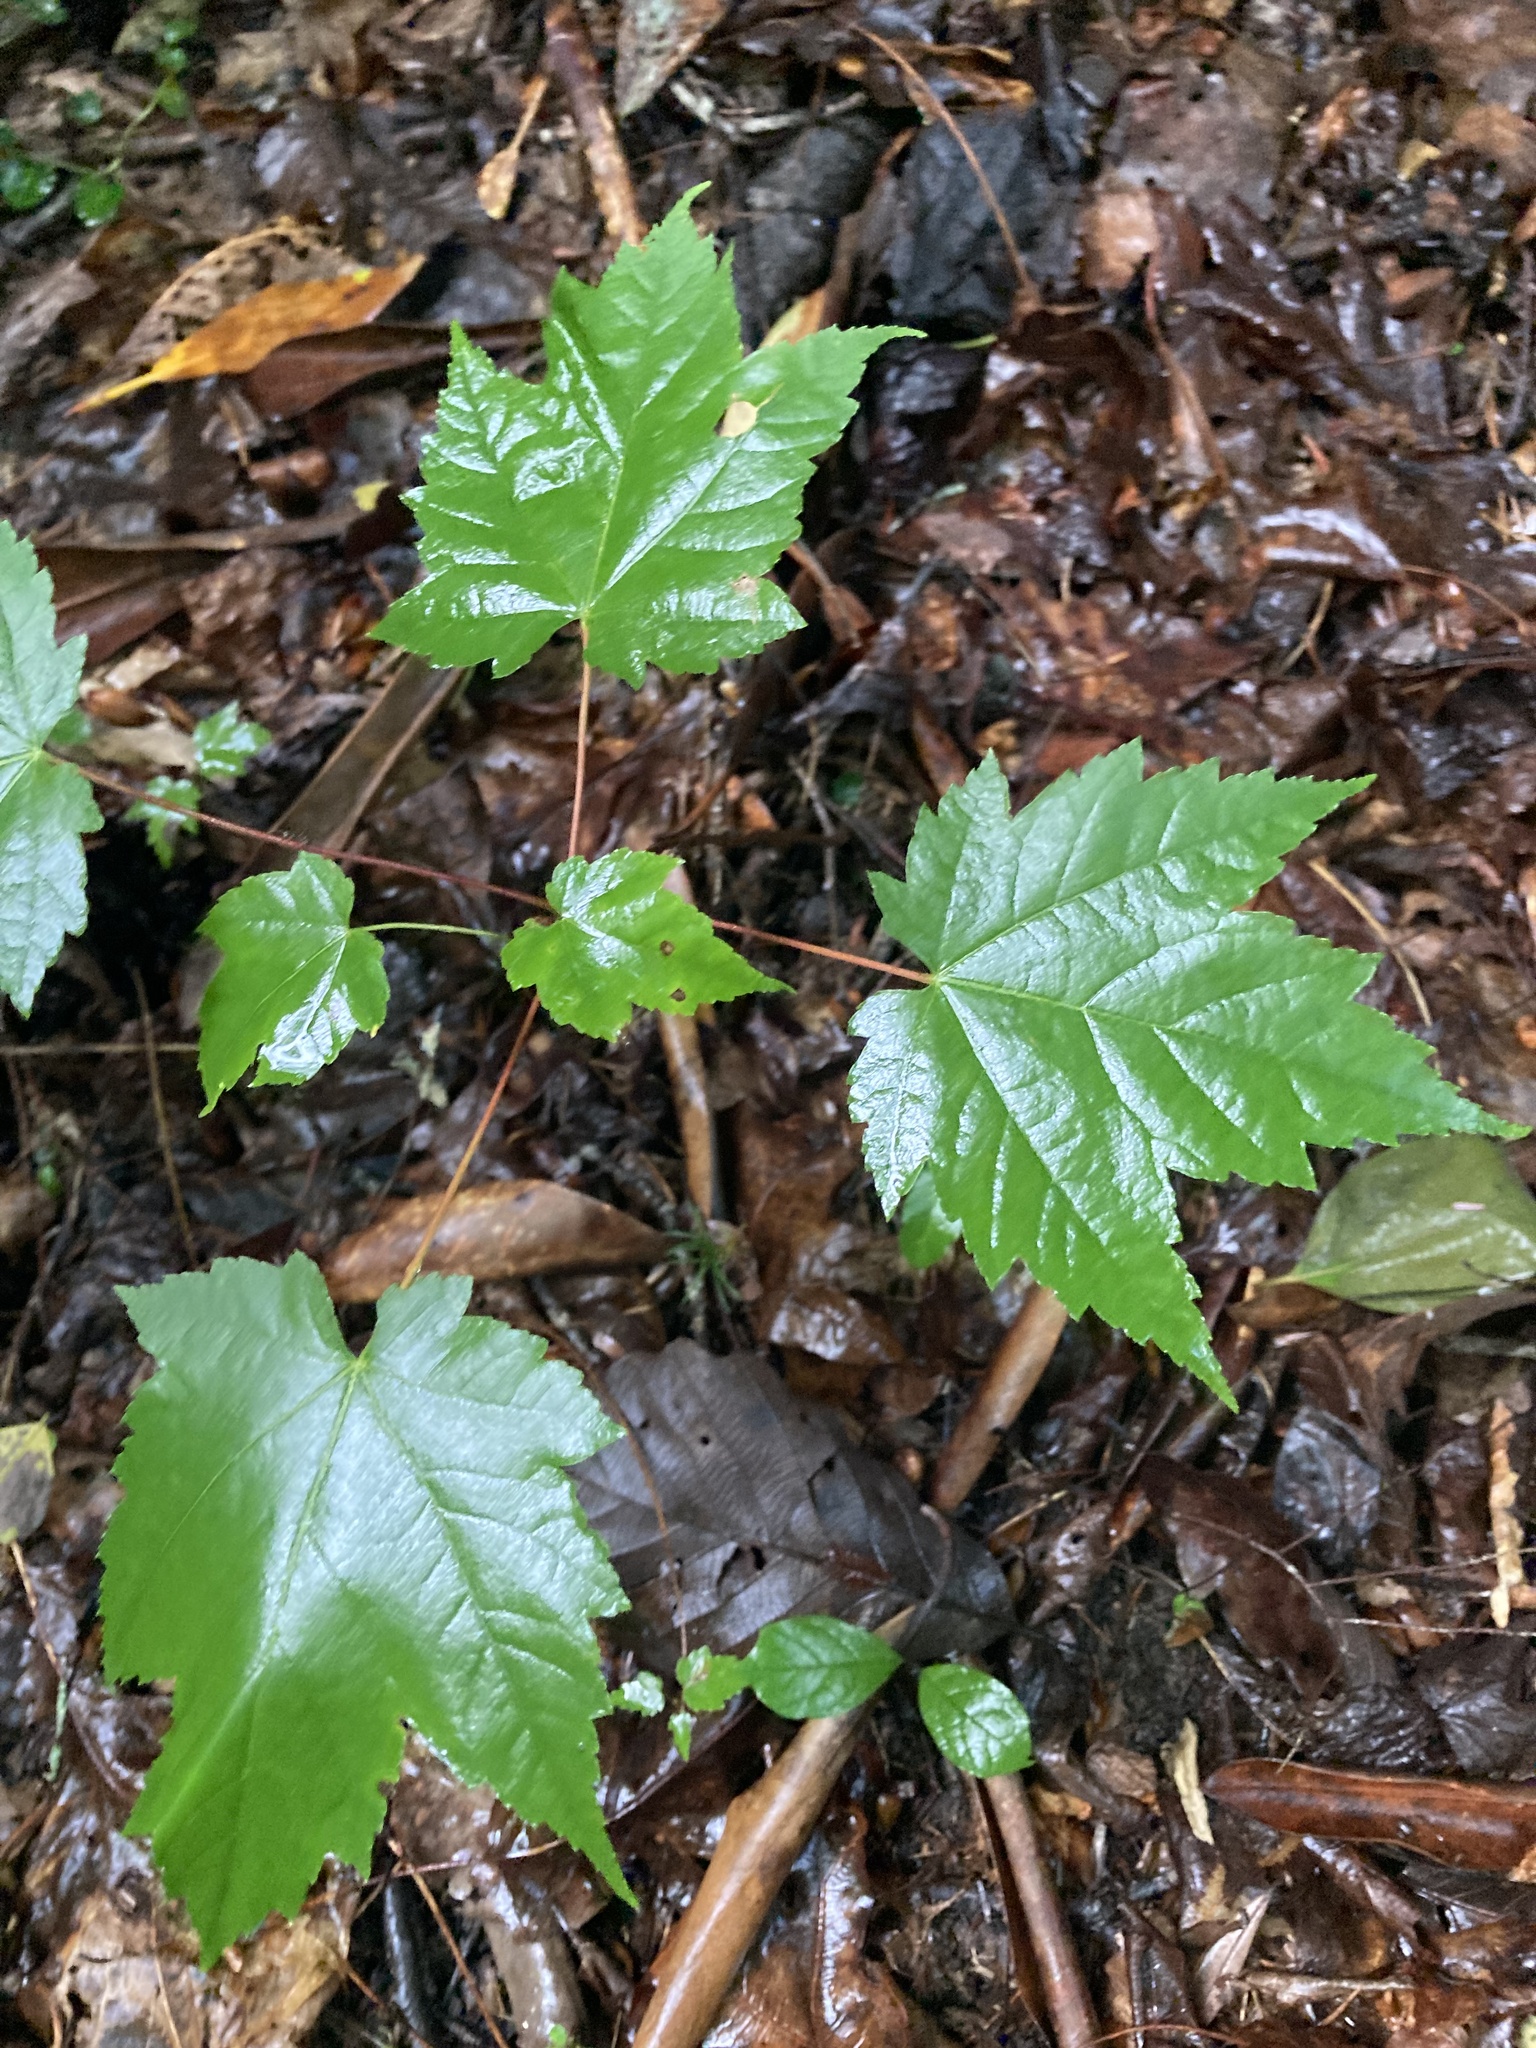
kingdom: Plantae
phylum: Tracheophyta
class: Magnoliopsida
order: Sapindales
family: Sapindaceae
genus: Acer
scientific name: Acer rubrum
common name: Red maple
